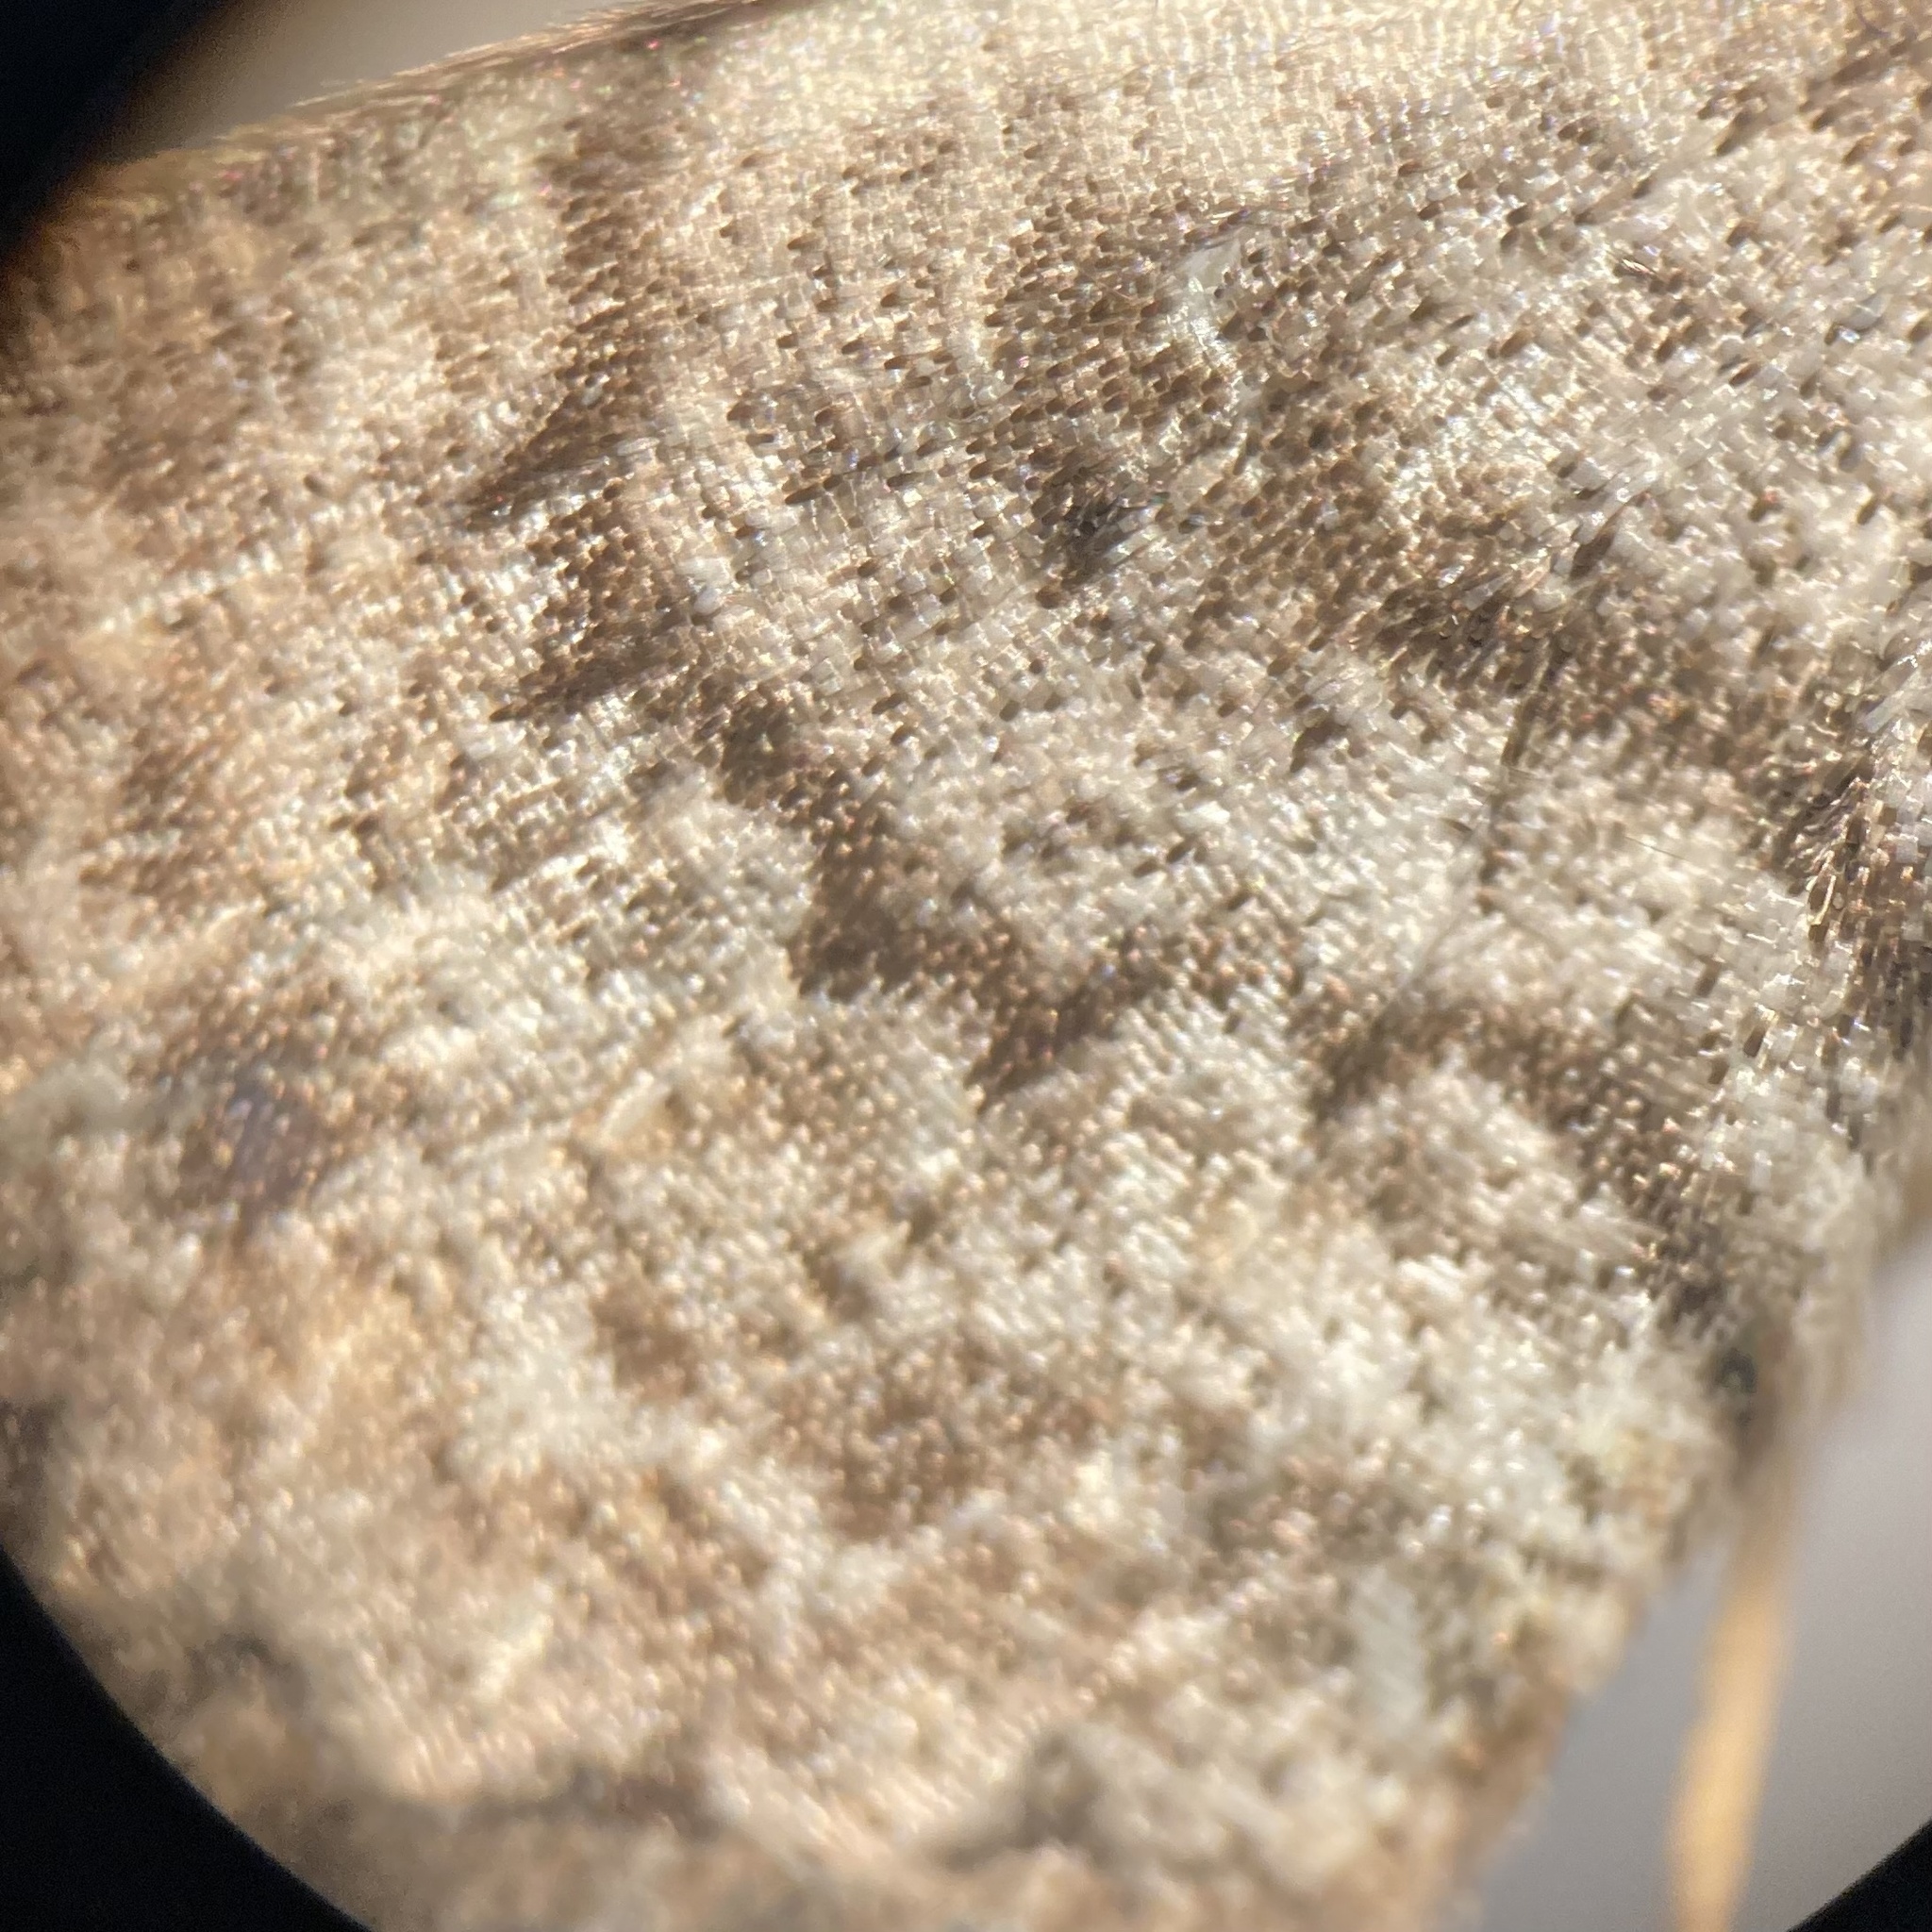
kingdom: Animalia
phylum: Arthropoda
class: Insecta
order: Lepidoptera
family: Geometridae
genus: Protoboarmia
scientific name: Protoboarmia porcelaria
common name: Porcelain gray
